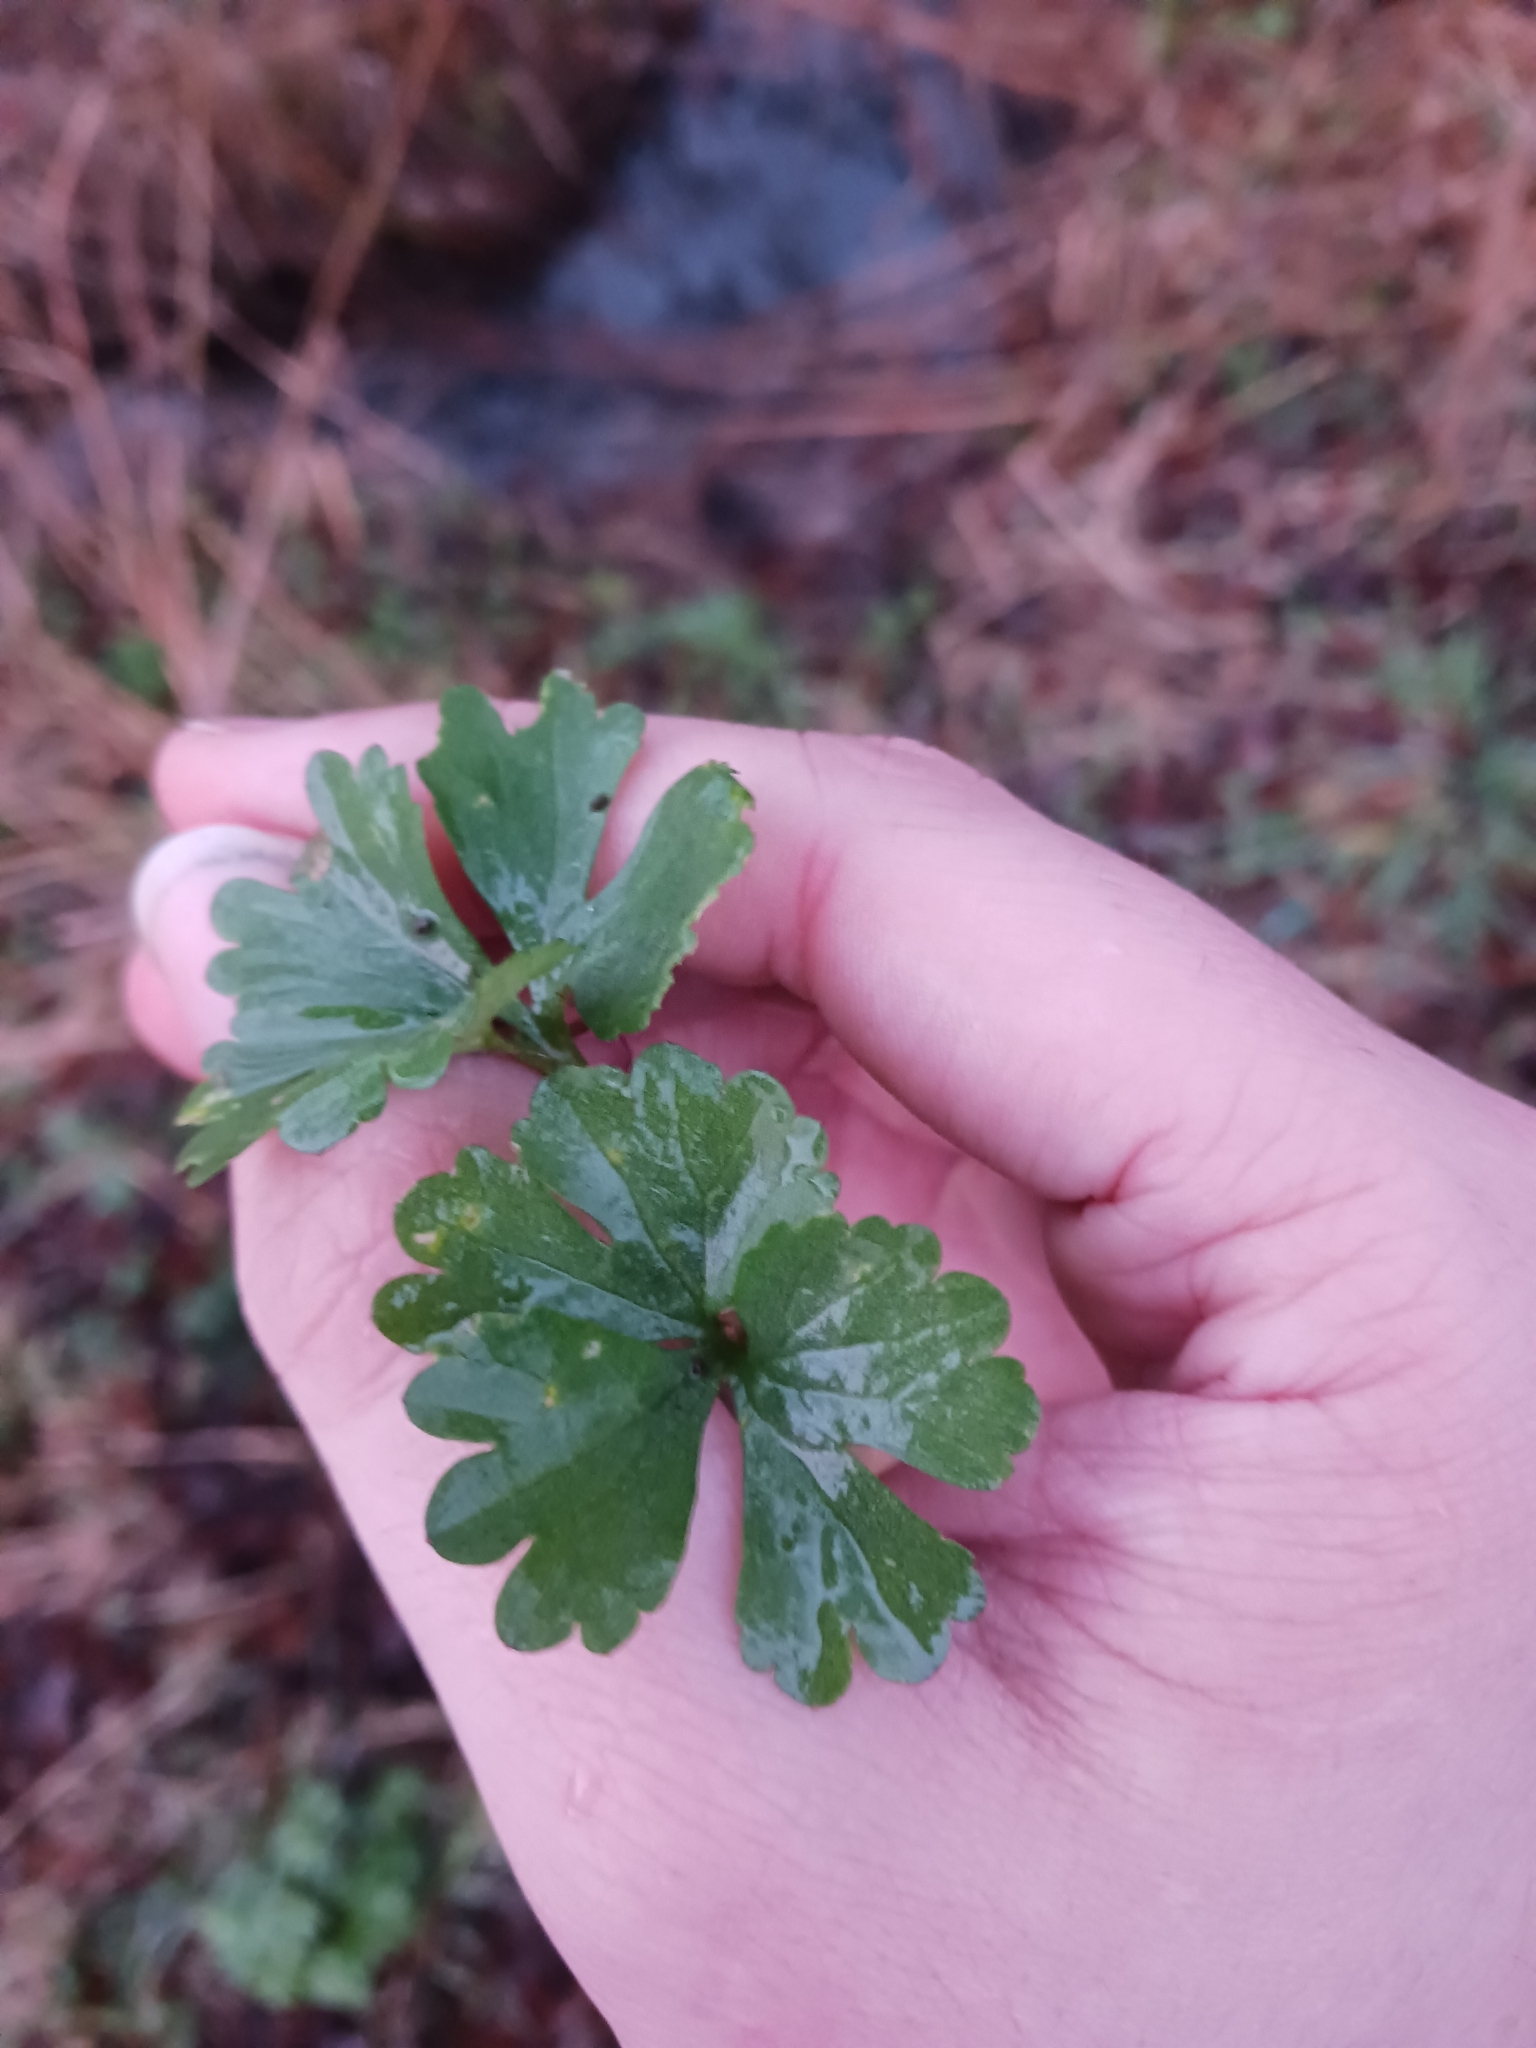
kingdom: Plantae
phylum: Tracheophyta
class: Magnoliopsida
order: Ranunculales
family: Ranunculaceae
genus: Ranunculus
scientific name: Ranunculus auricomus
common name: Goldilocks buttercup
